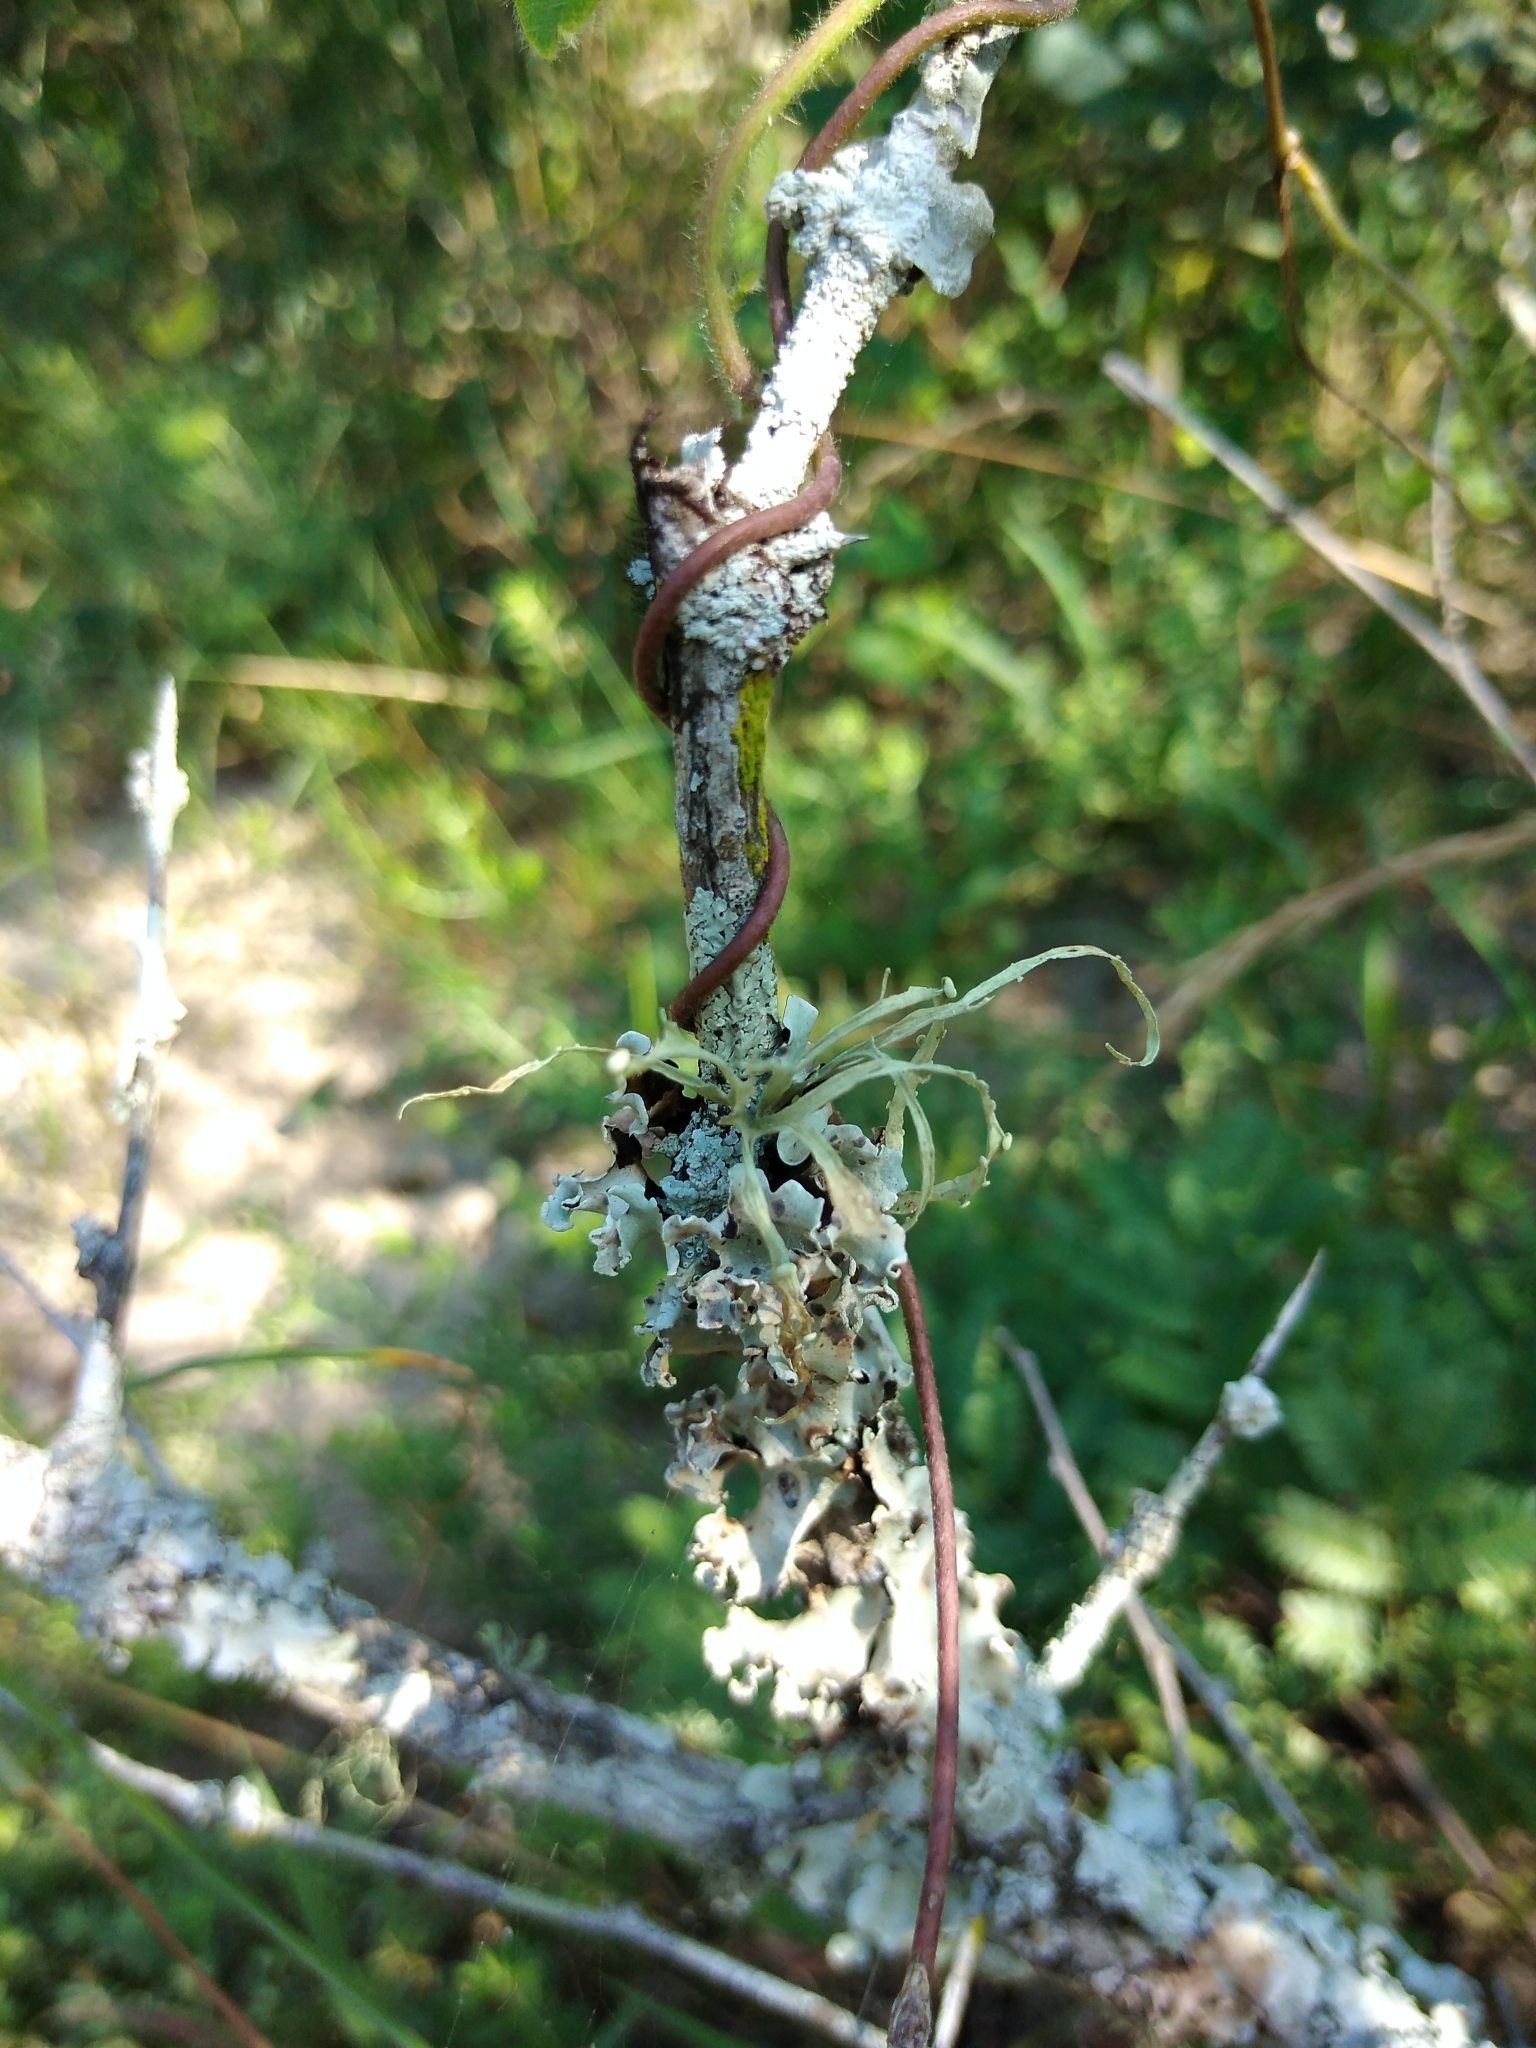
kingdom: Fungi
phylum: Ascomycota
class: Lecanoromycetes
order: Lecanorales
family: Ramalinaceae
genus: Ramalina
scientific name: Ramalina celastri
